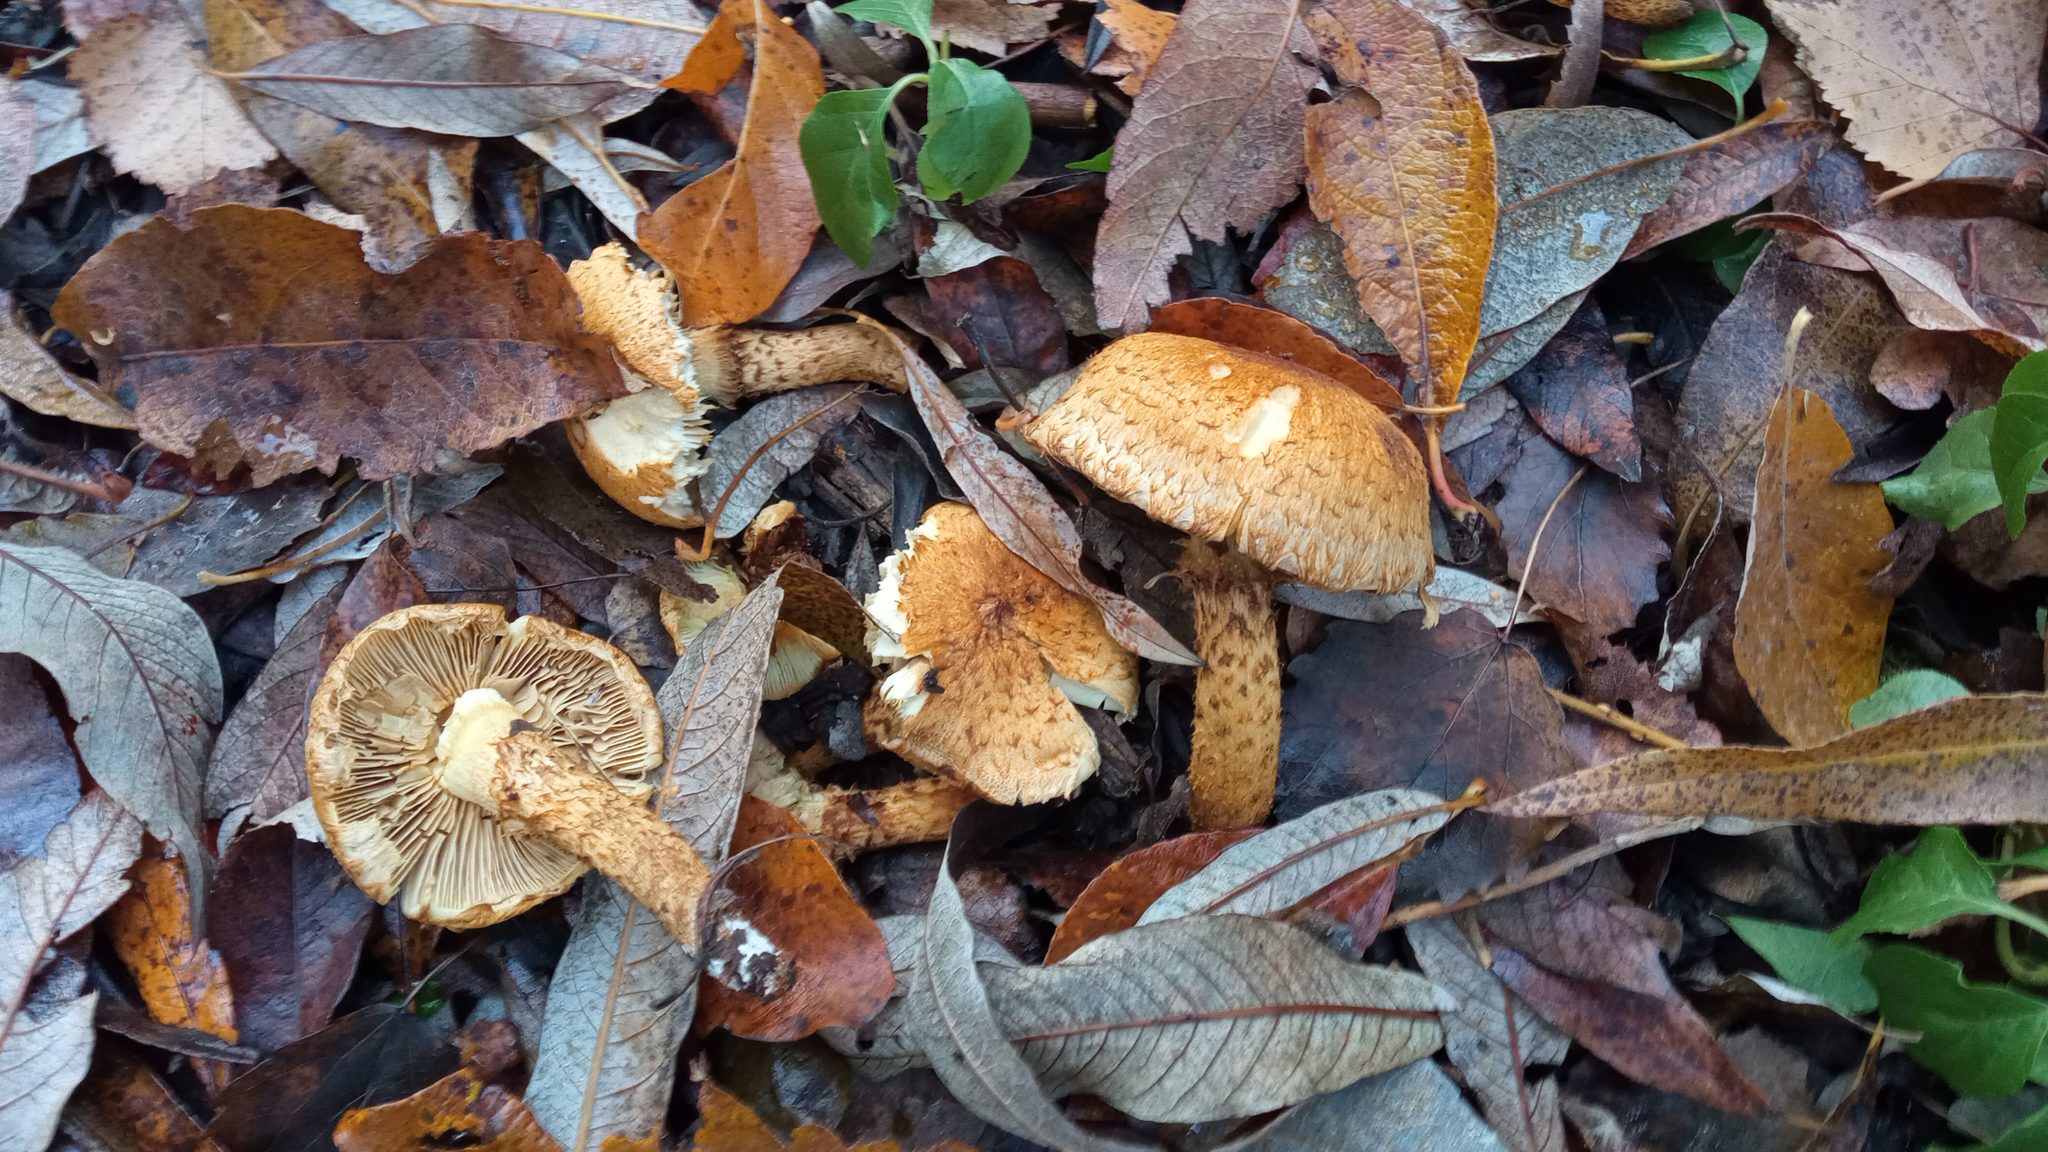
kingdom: Fungi
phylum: Basidiomycota
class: Agaricomycetes
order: Agaricales
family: Strophariaceae
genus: Pholiota
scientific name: Pholiota squarrosa
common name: Shaggy pholiota
